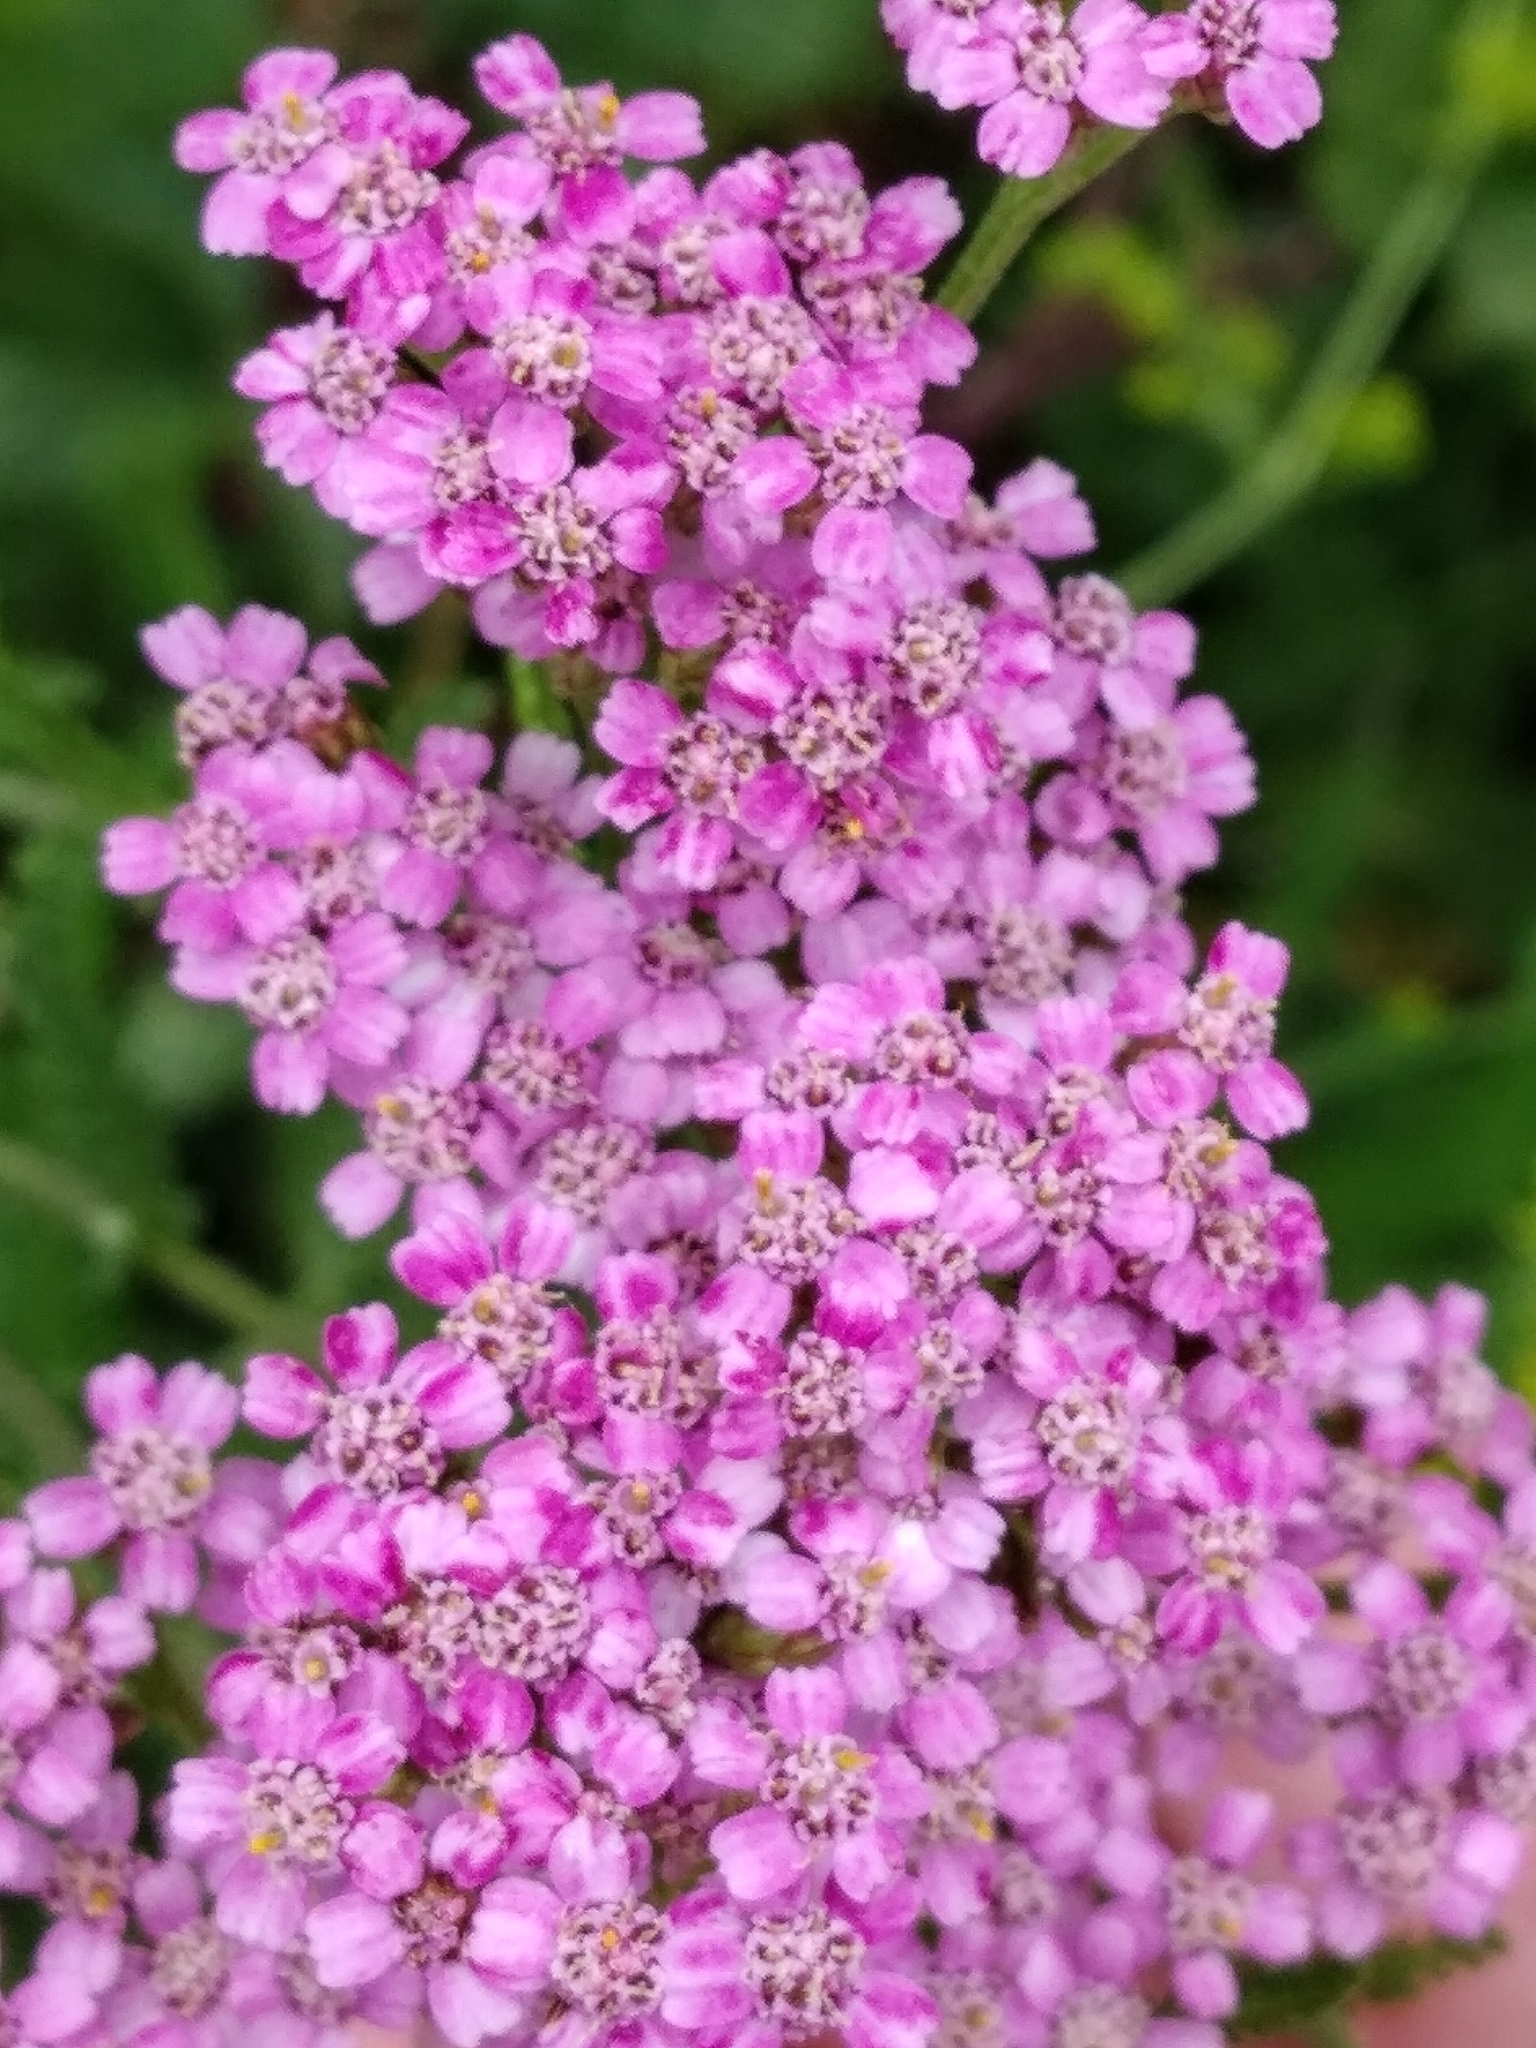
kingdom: Plantae
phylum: Tracheophyta
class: Magnoliopsida
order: Asterales
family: Asteraceae
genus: Achillea
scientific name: Achillea millefolium
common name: Yarrow
